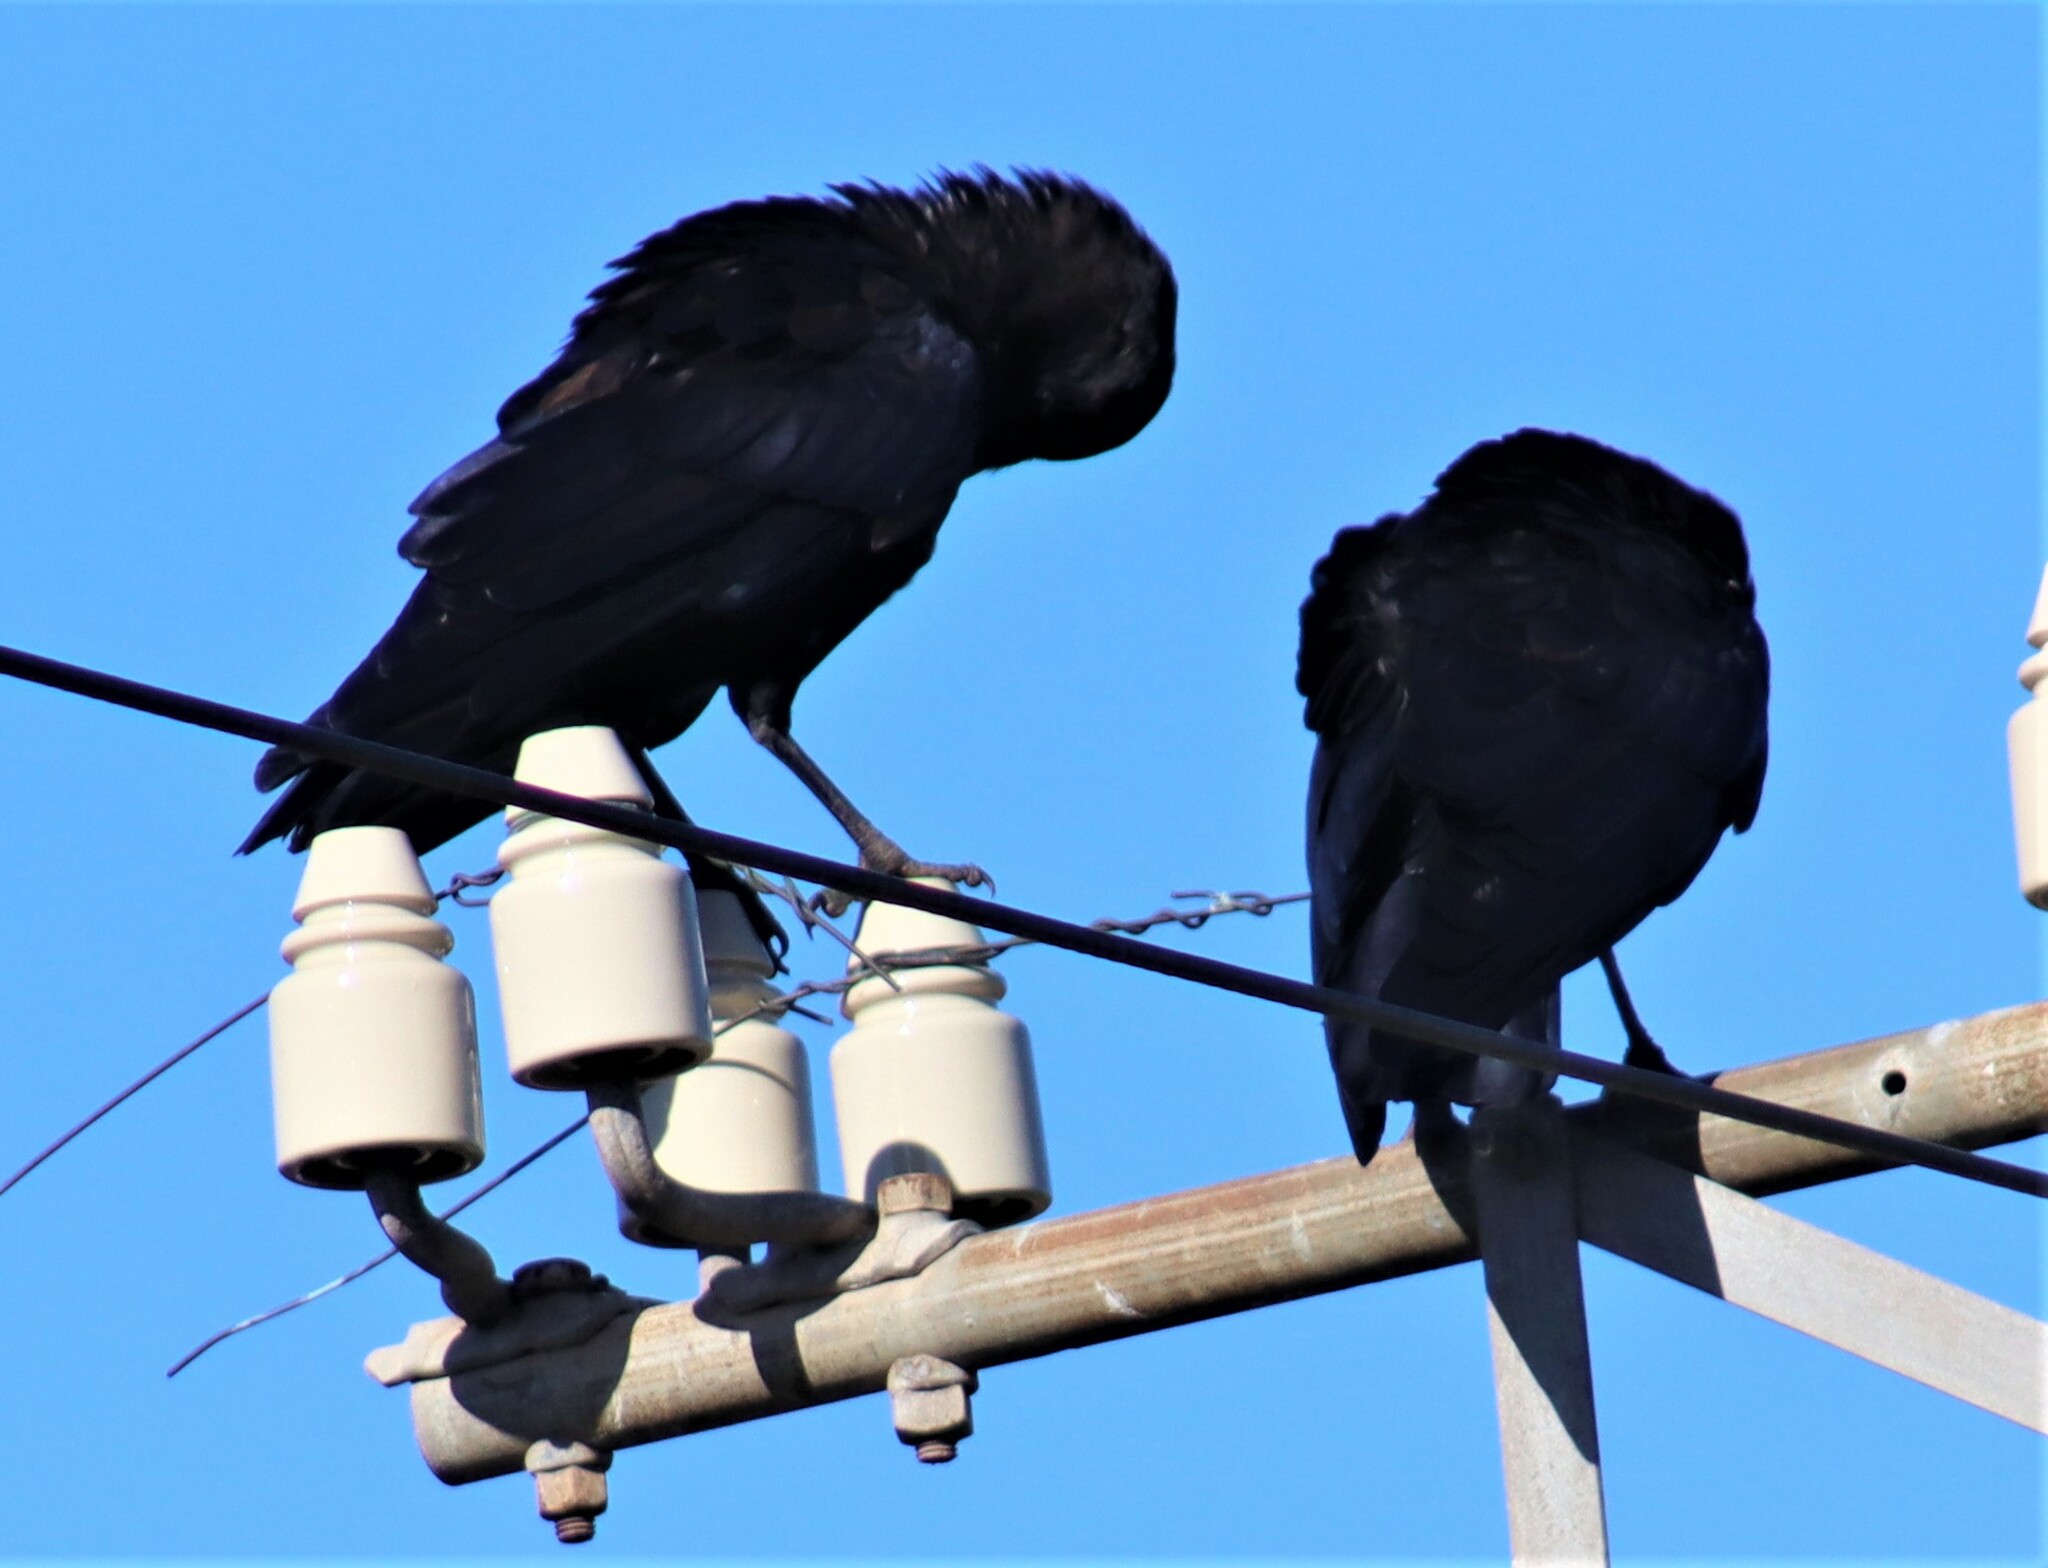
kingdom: Animalia
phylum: Chordata
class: Aves
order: Passeriformes
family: Corvidae
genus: Corvus
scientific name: Corvus capensis
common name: Cape crow
